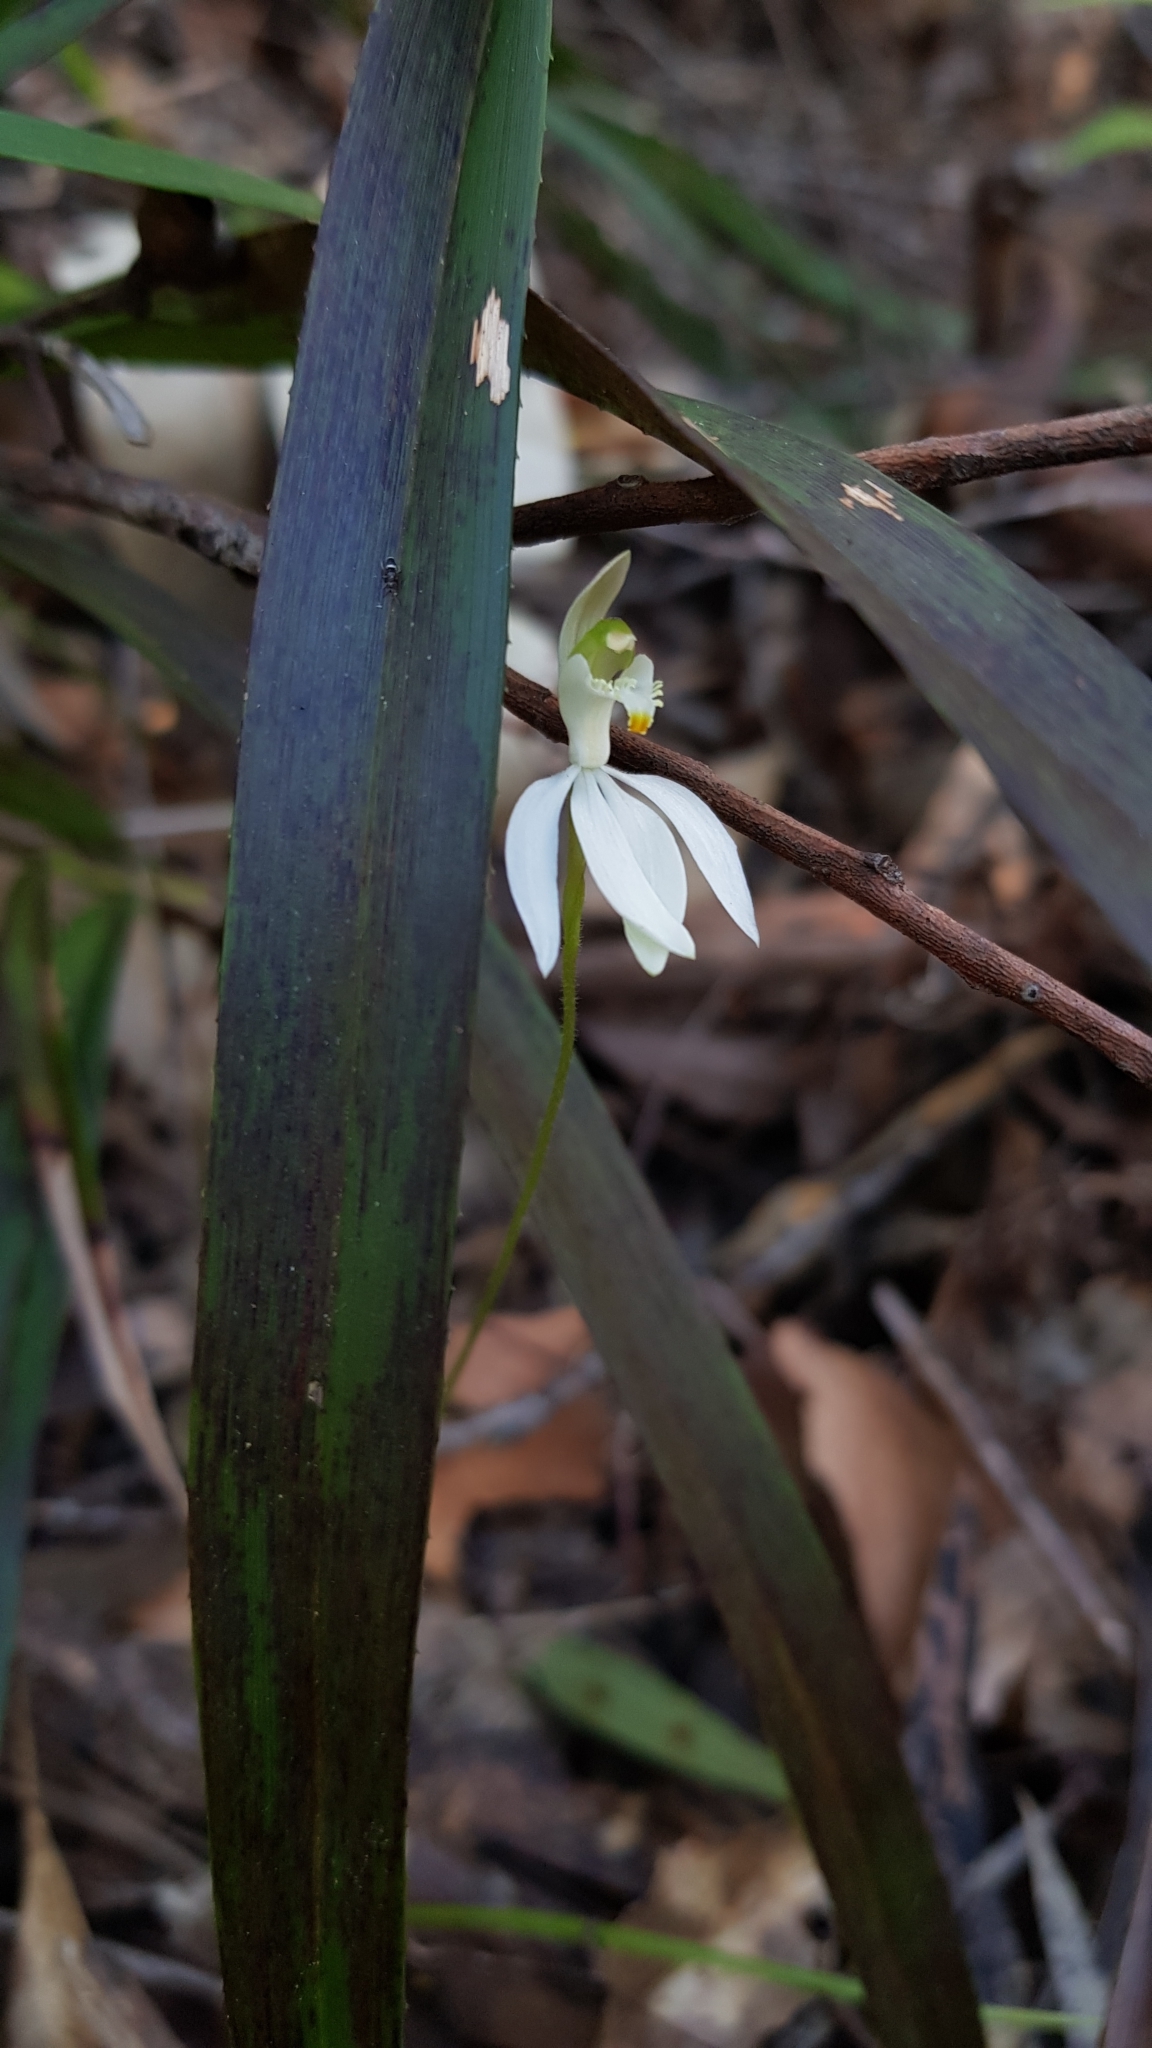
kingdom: Plantae
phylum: Tracheophyta
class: Liliopsida
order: Asparagales
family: Orchidaceae
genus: Caladenia
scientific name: Caladenia catenata
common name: White caladenia
